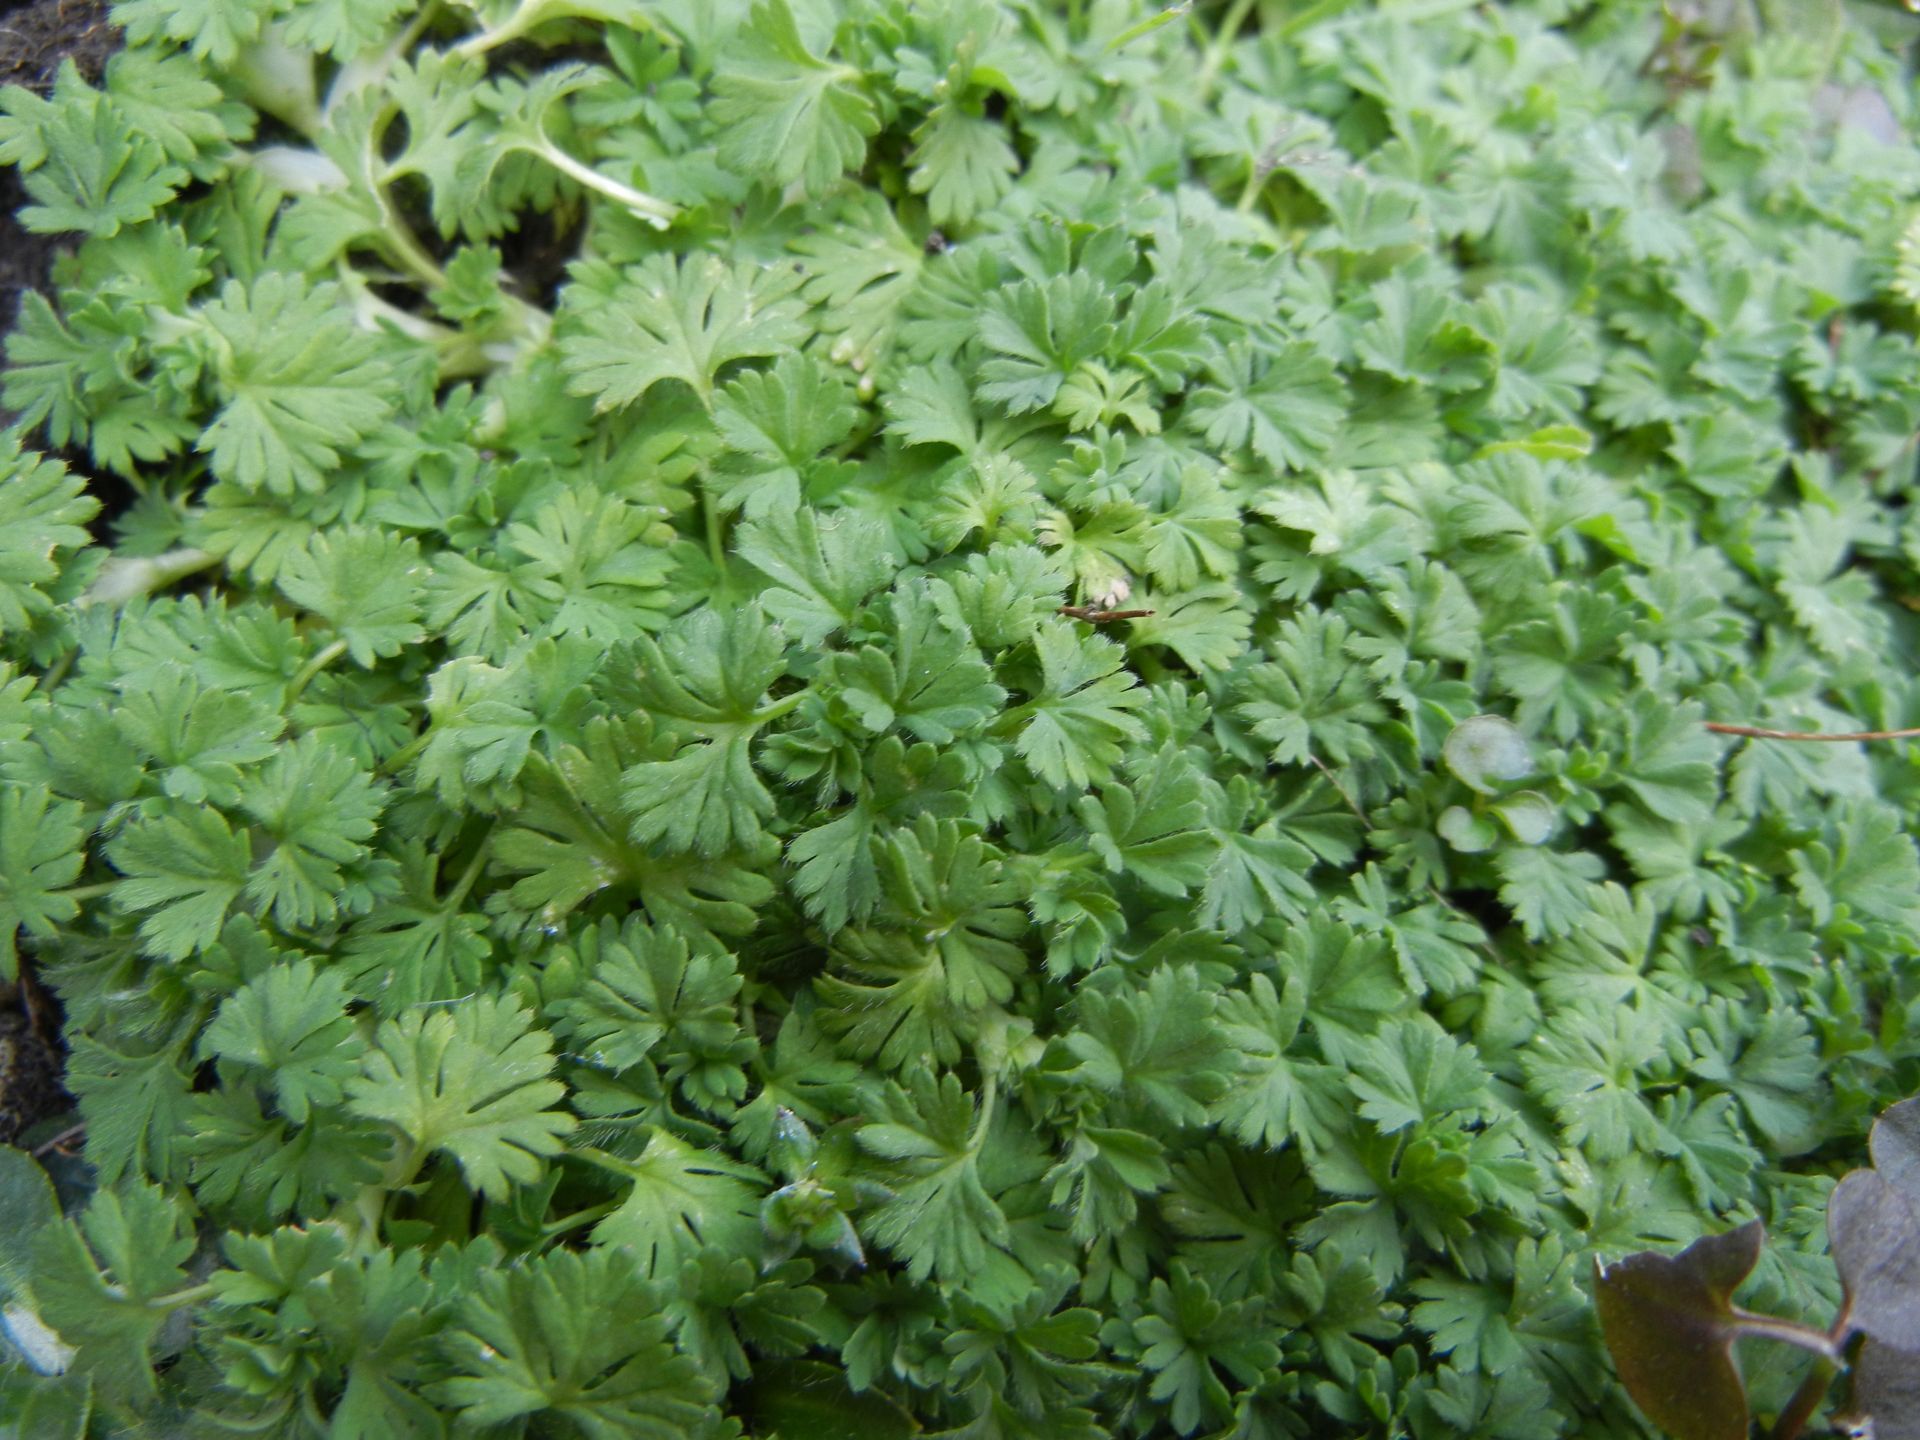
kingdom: Plantae
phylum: Tracheophyta
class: Magnoliopsida
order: Rosales
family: Rosaceae
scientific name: Rosaceae
